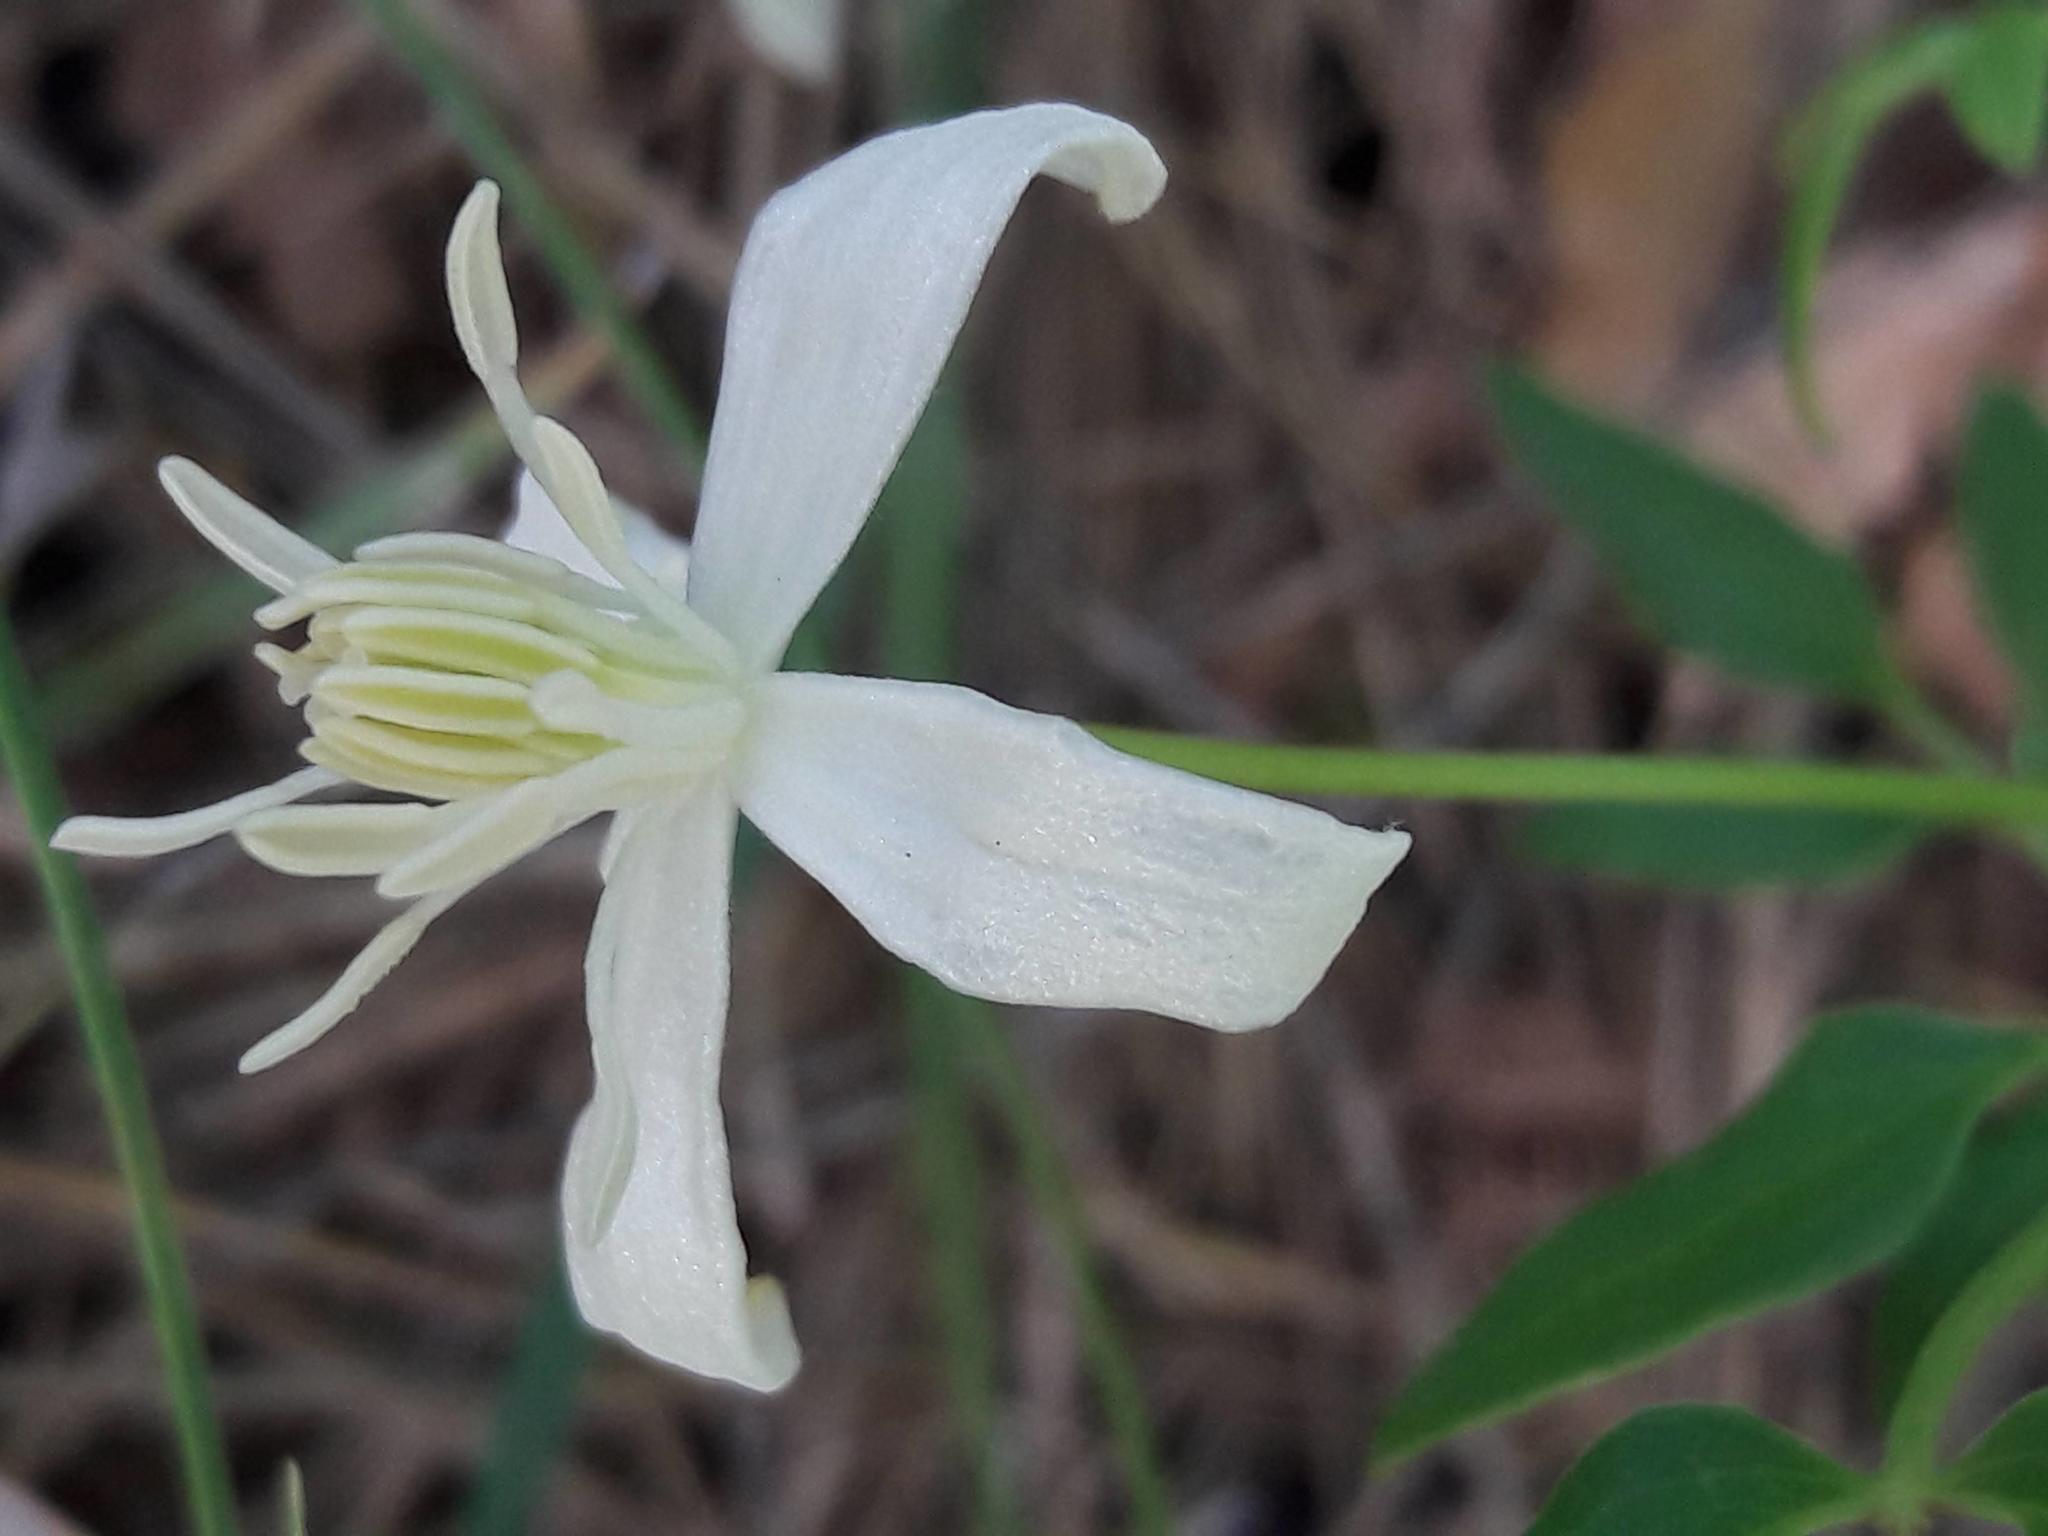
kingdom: Plantae
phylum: Tracheophyta
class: Magnoliopsida
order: Ranunculales
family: Ranunculaceae
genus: Clematis
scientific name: Clematis flammula
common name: Virgin's-bower
